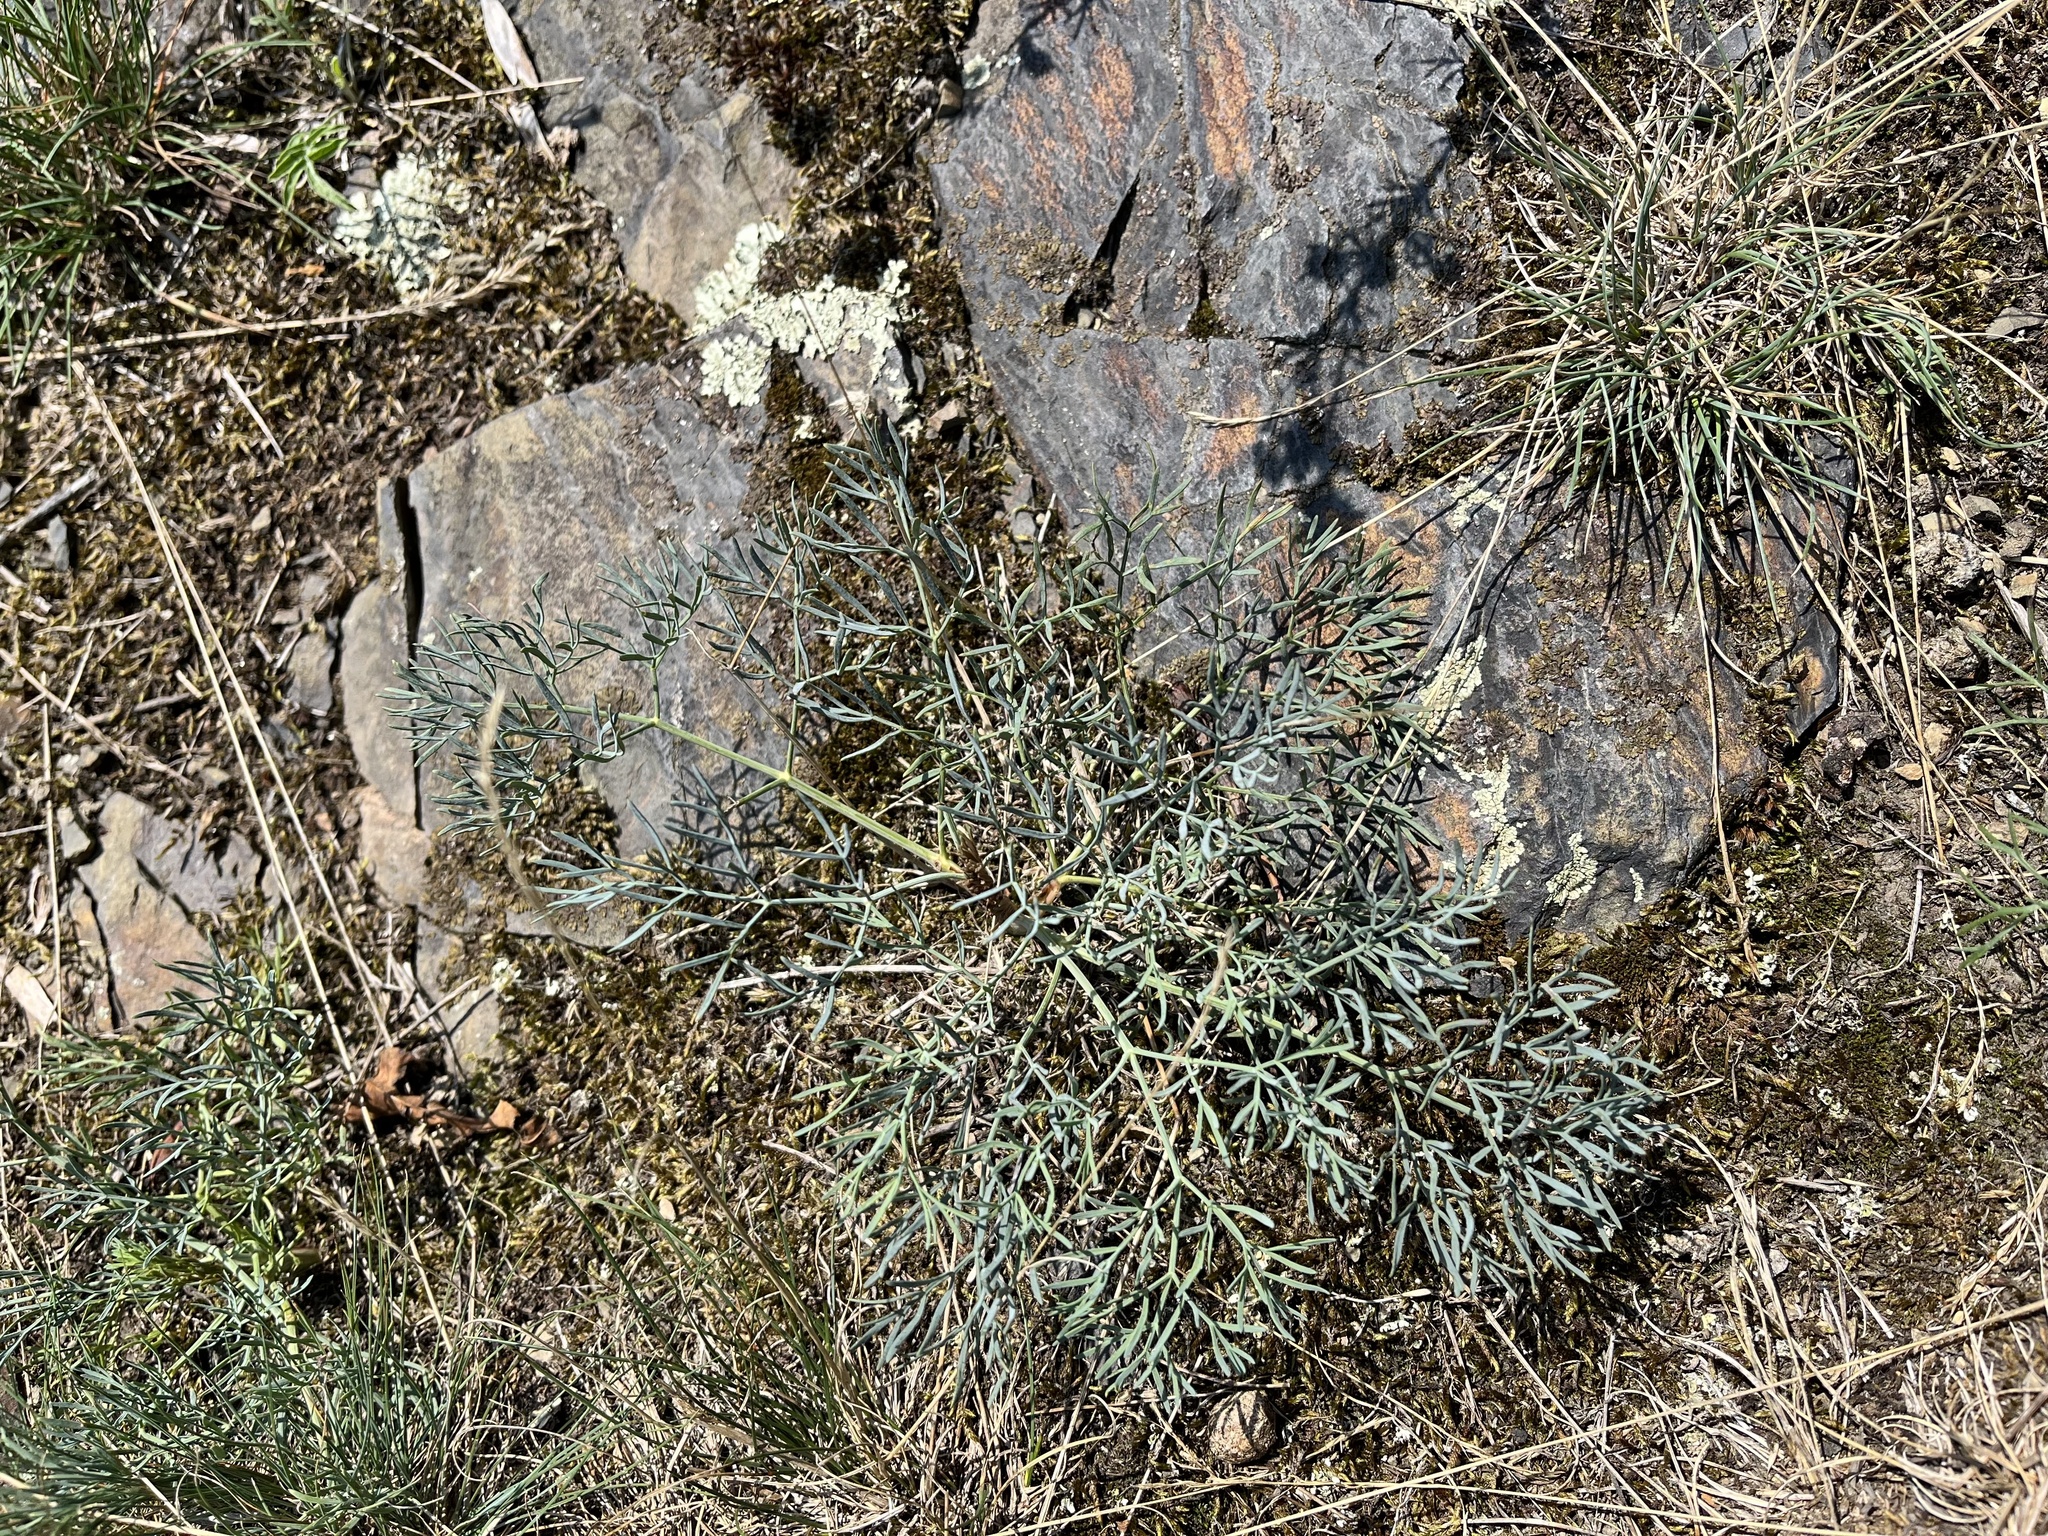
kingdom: Plantae
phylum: Tracheophyta
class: Magnoliopsida
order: Apiales
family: Apiaceae
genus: Seseli
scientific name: Seseli osseum
